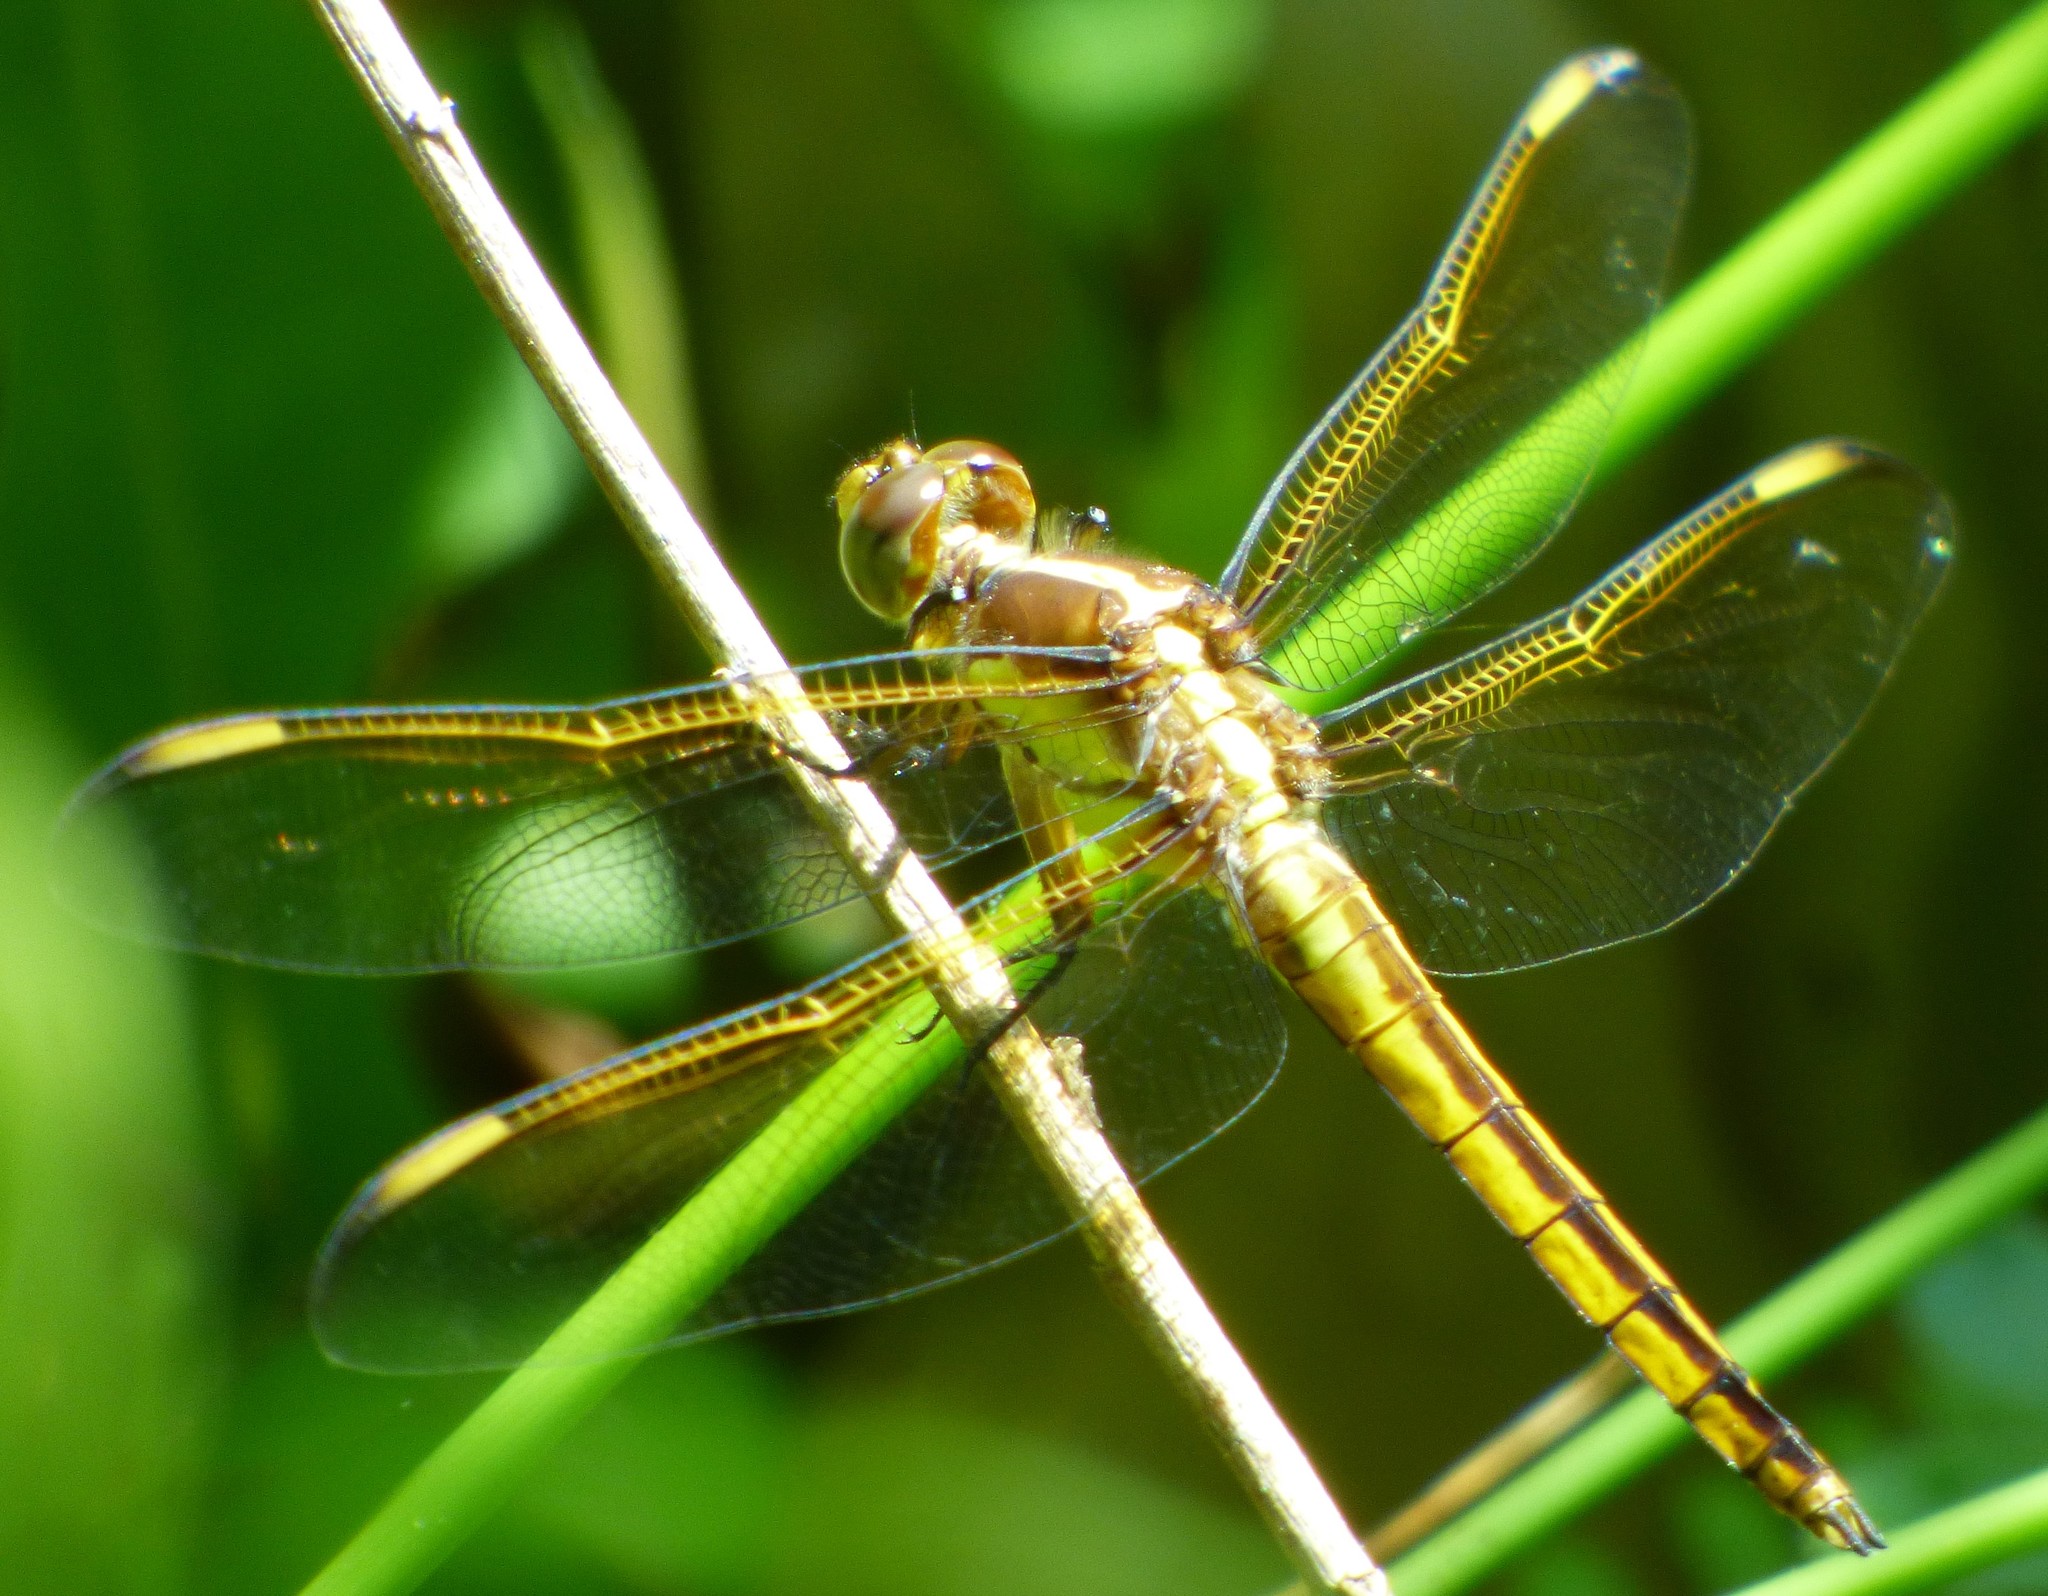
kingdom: Animalia
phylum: Arthropoda
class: Insecta
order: Odonata
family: Libellulidae
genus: Libellula
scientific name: Libellula flavida
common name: Yellow-sided skimmer
